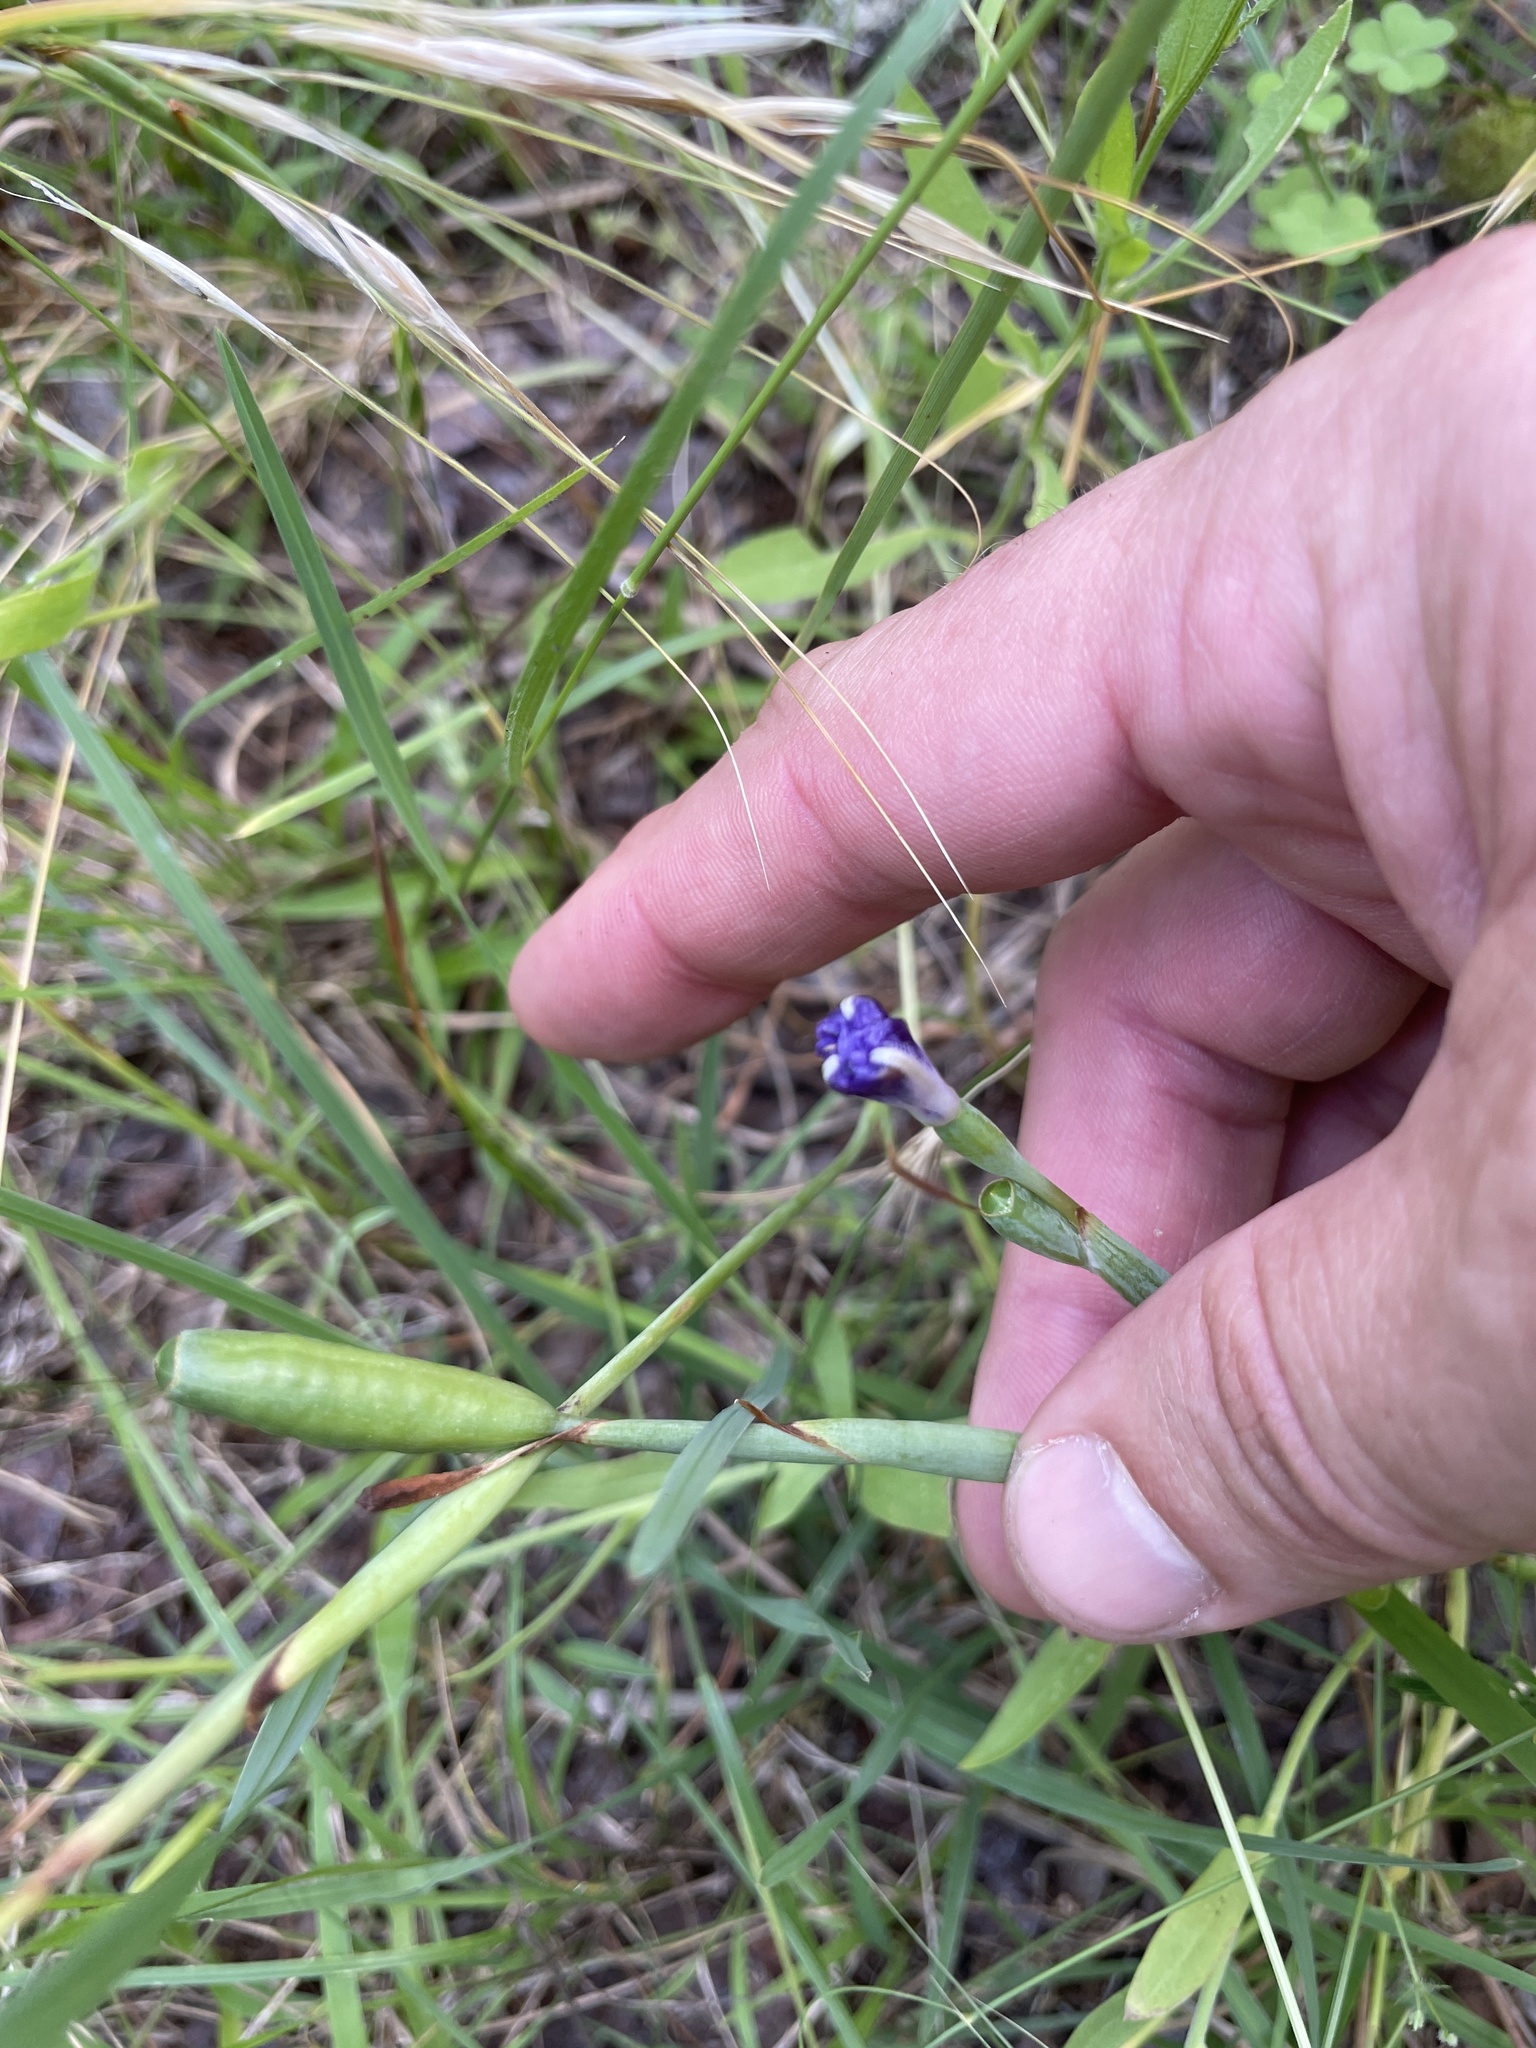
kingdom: Plantae
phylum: Tracheophyta
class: Liliopsida
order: Asparagales
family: Iridaceae
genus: Herbertia
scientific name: Herbertia lahue
